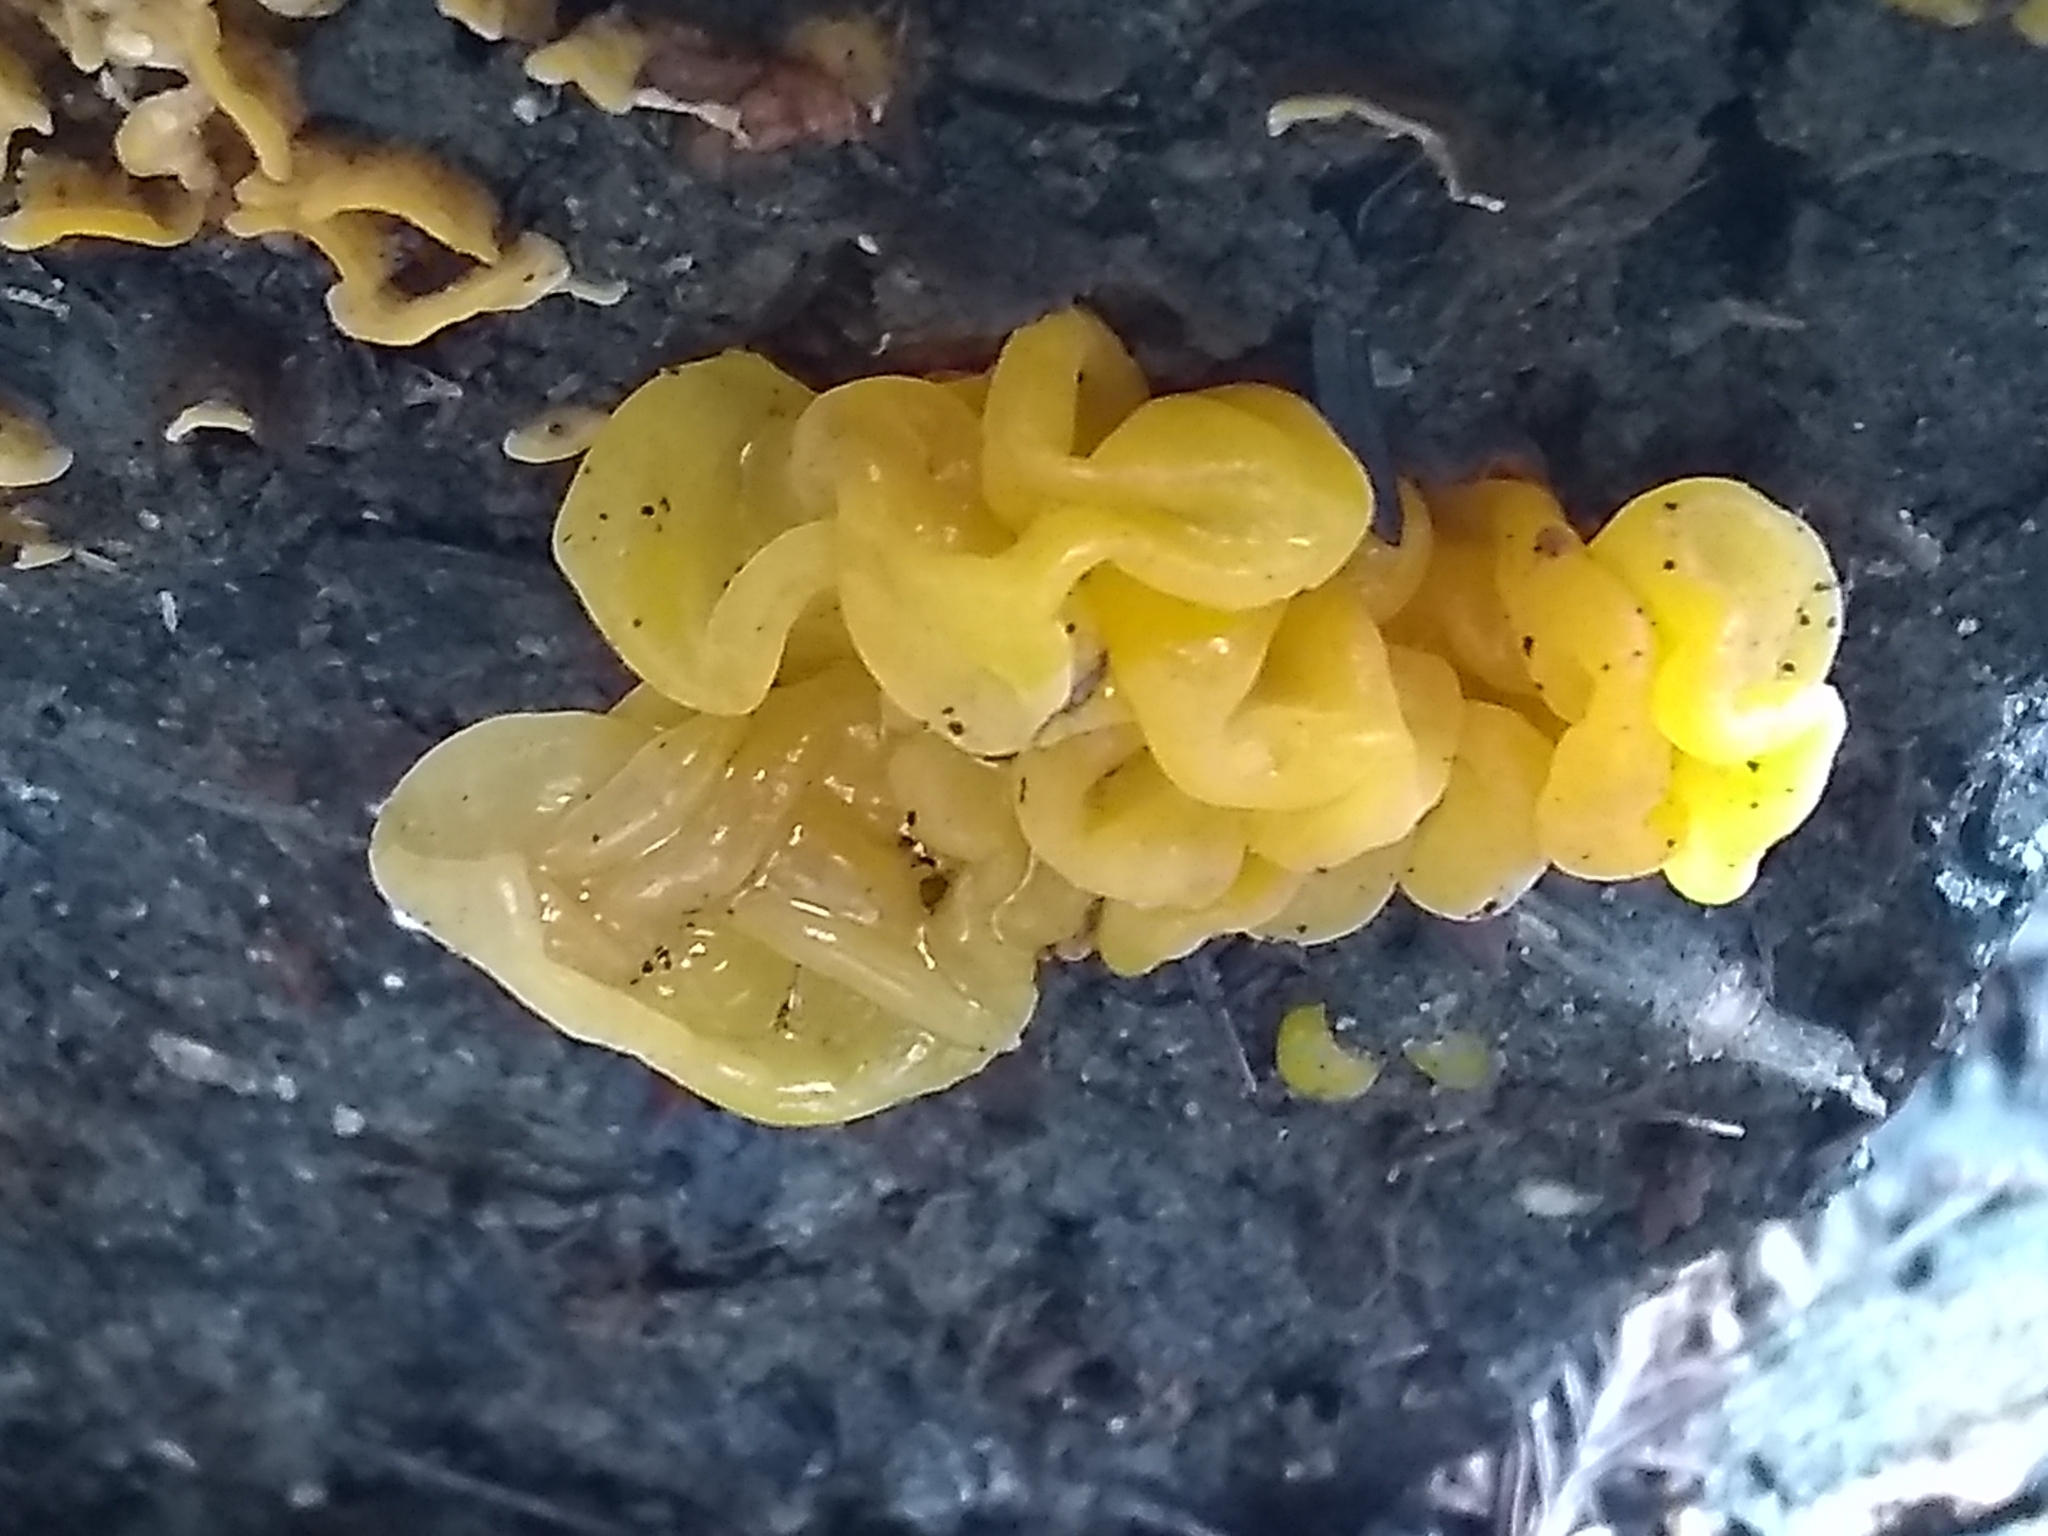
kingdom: Fungi
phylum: Basidiomycota
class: Tremellomycetes
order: Tremellales
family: Naemateliaceae
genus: Naematelia
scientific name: Naematelia aurantia
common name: Golden ear
